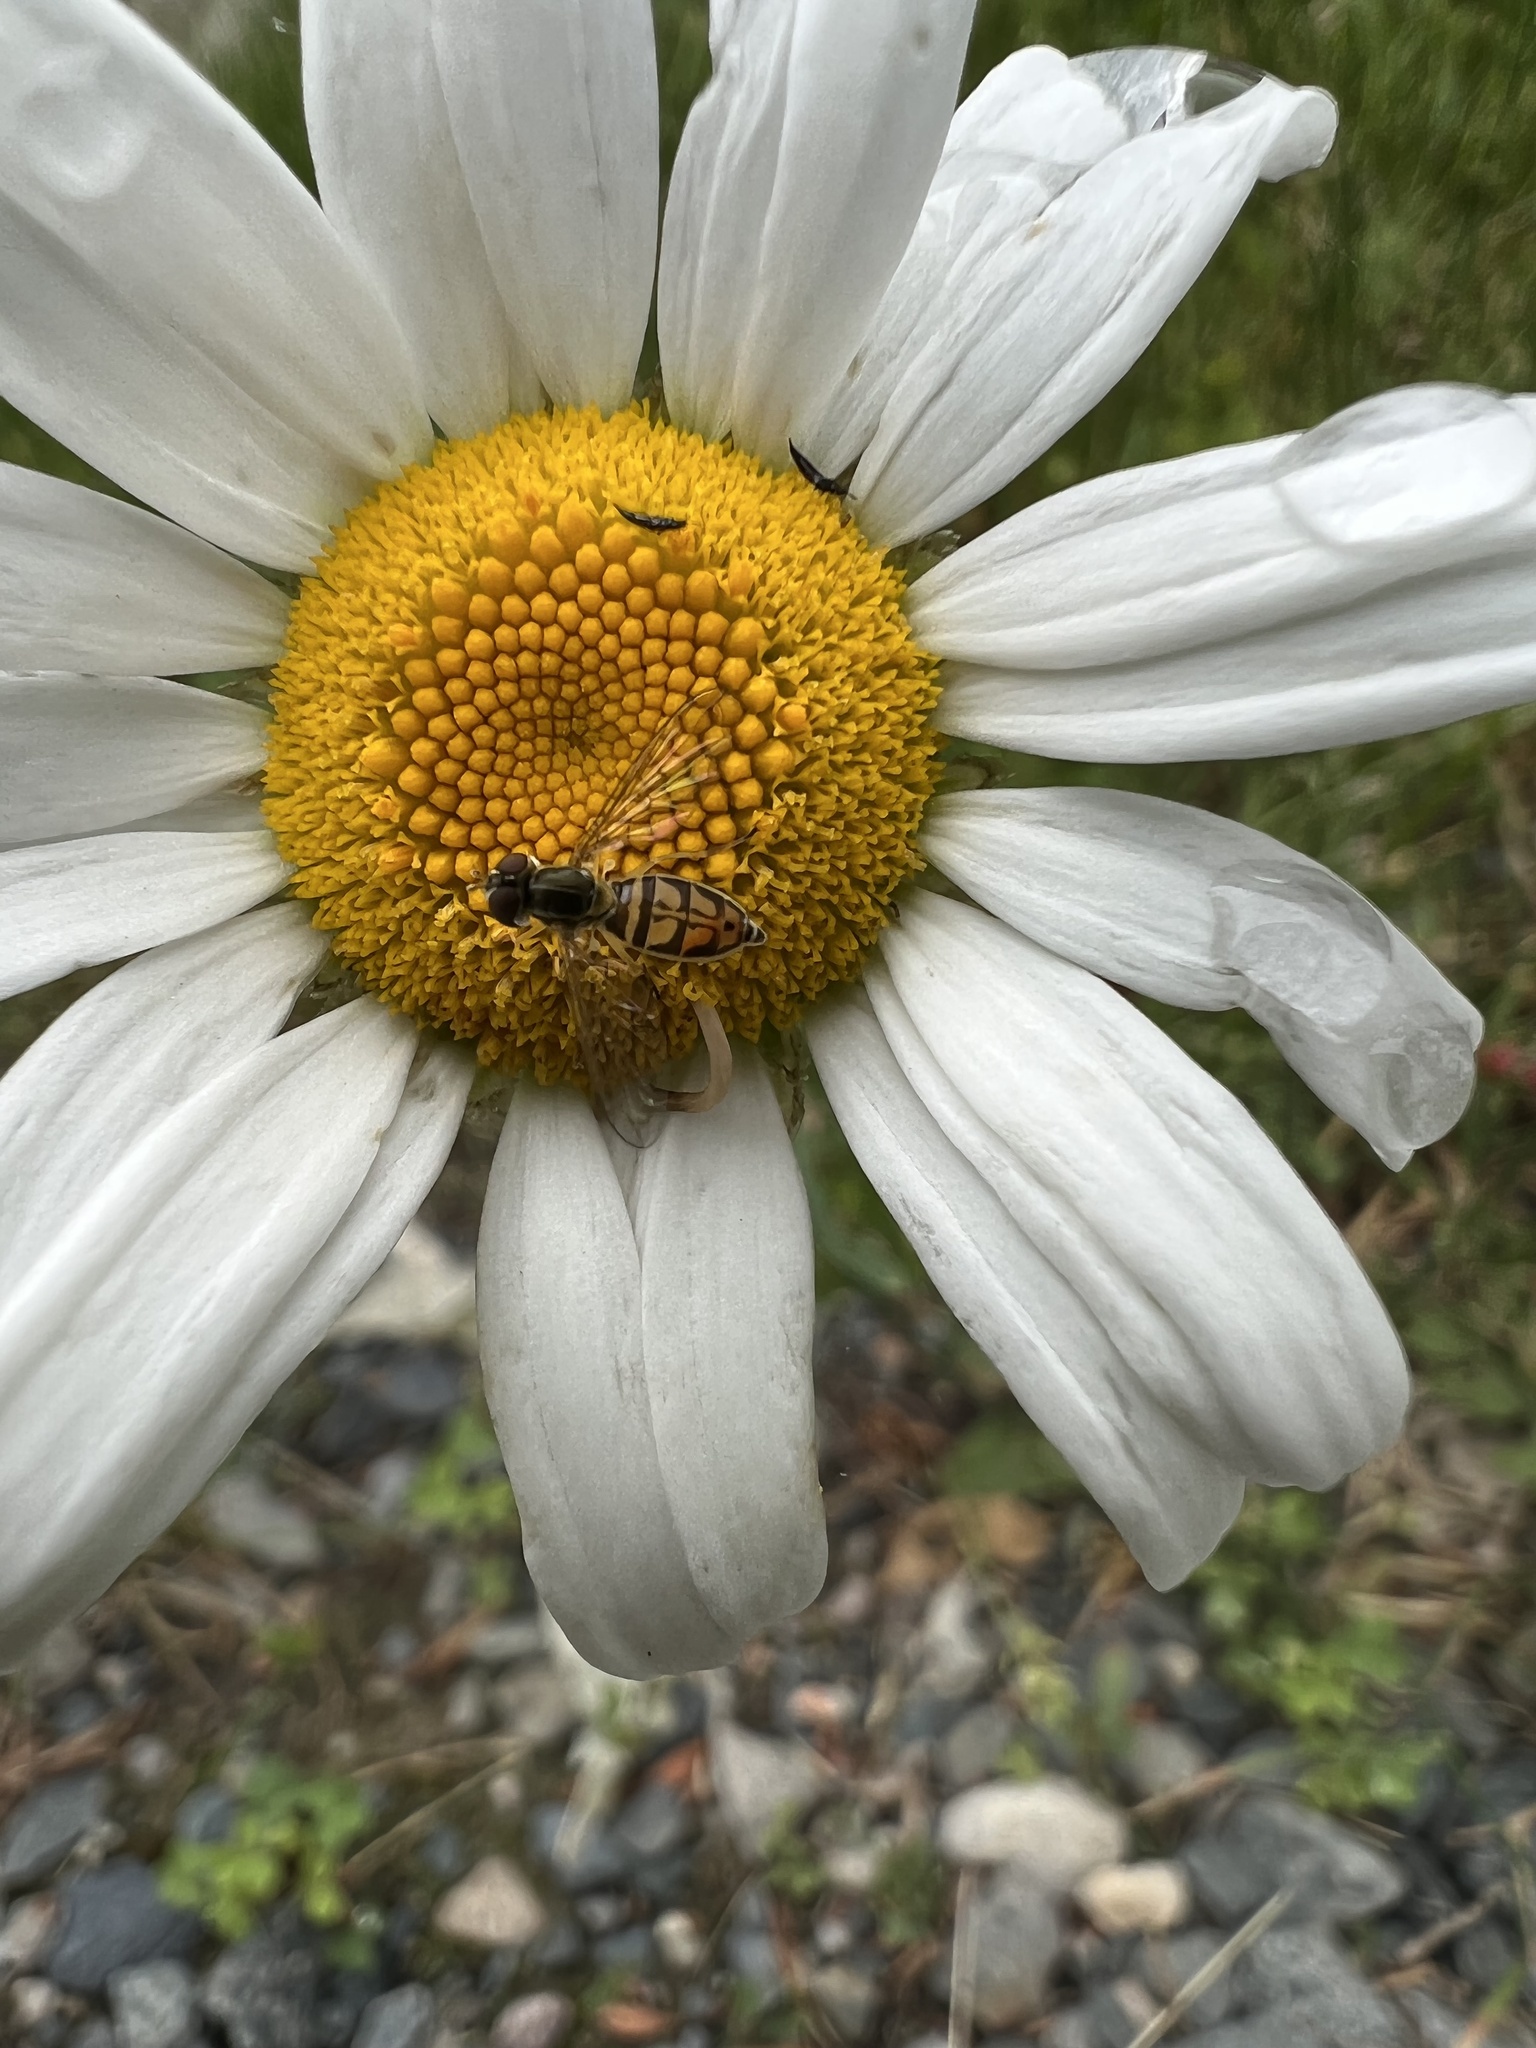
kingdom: Animalia
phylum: Arthropoda
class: Insecta
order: Diptera
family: Syrphidae
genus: Toxomerus
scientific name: Toxomerus marginatus
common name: Syrphid fly
